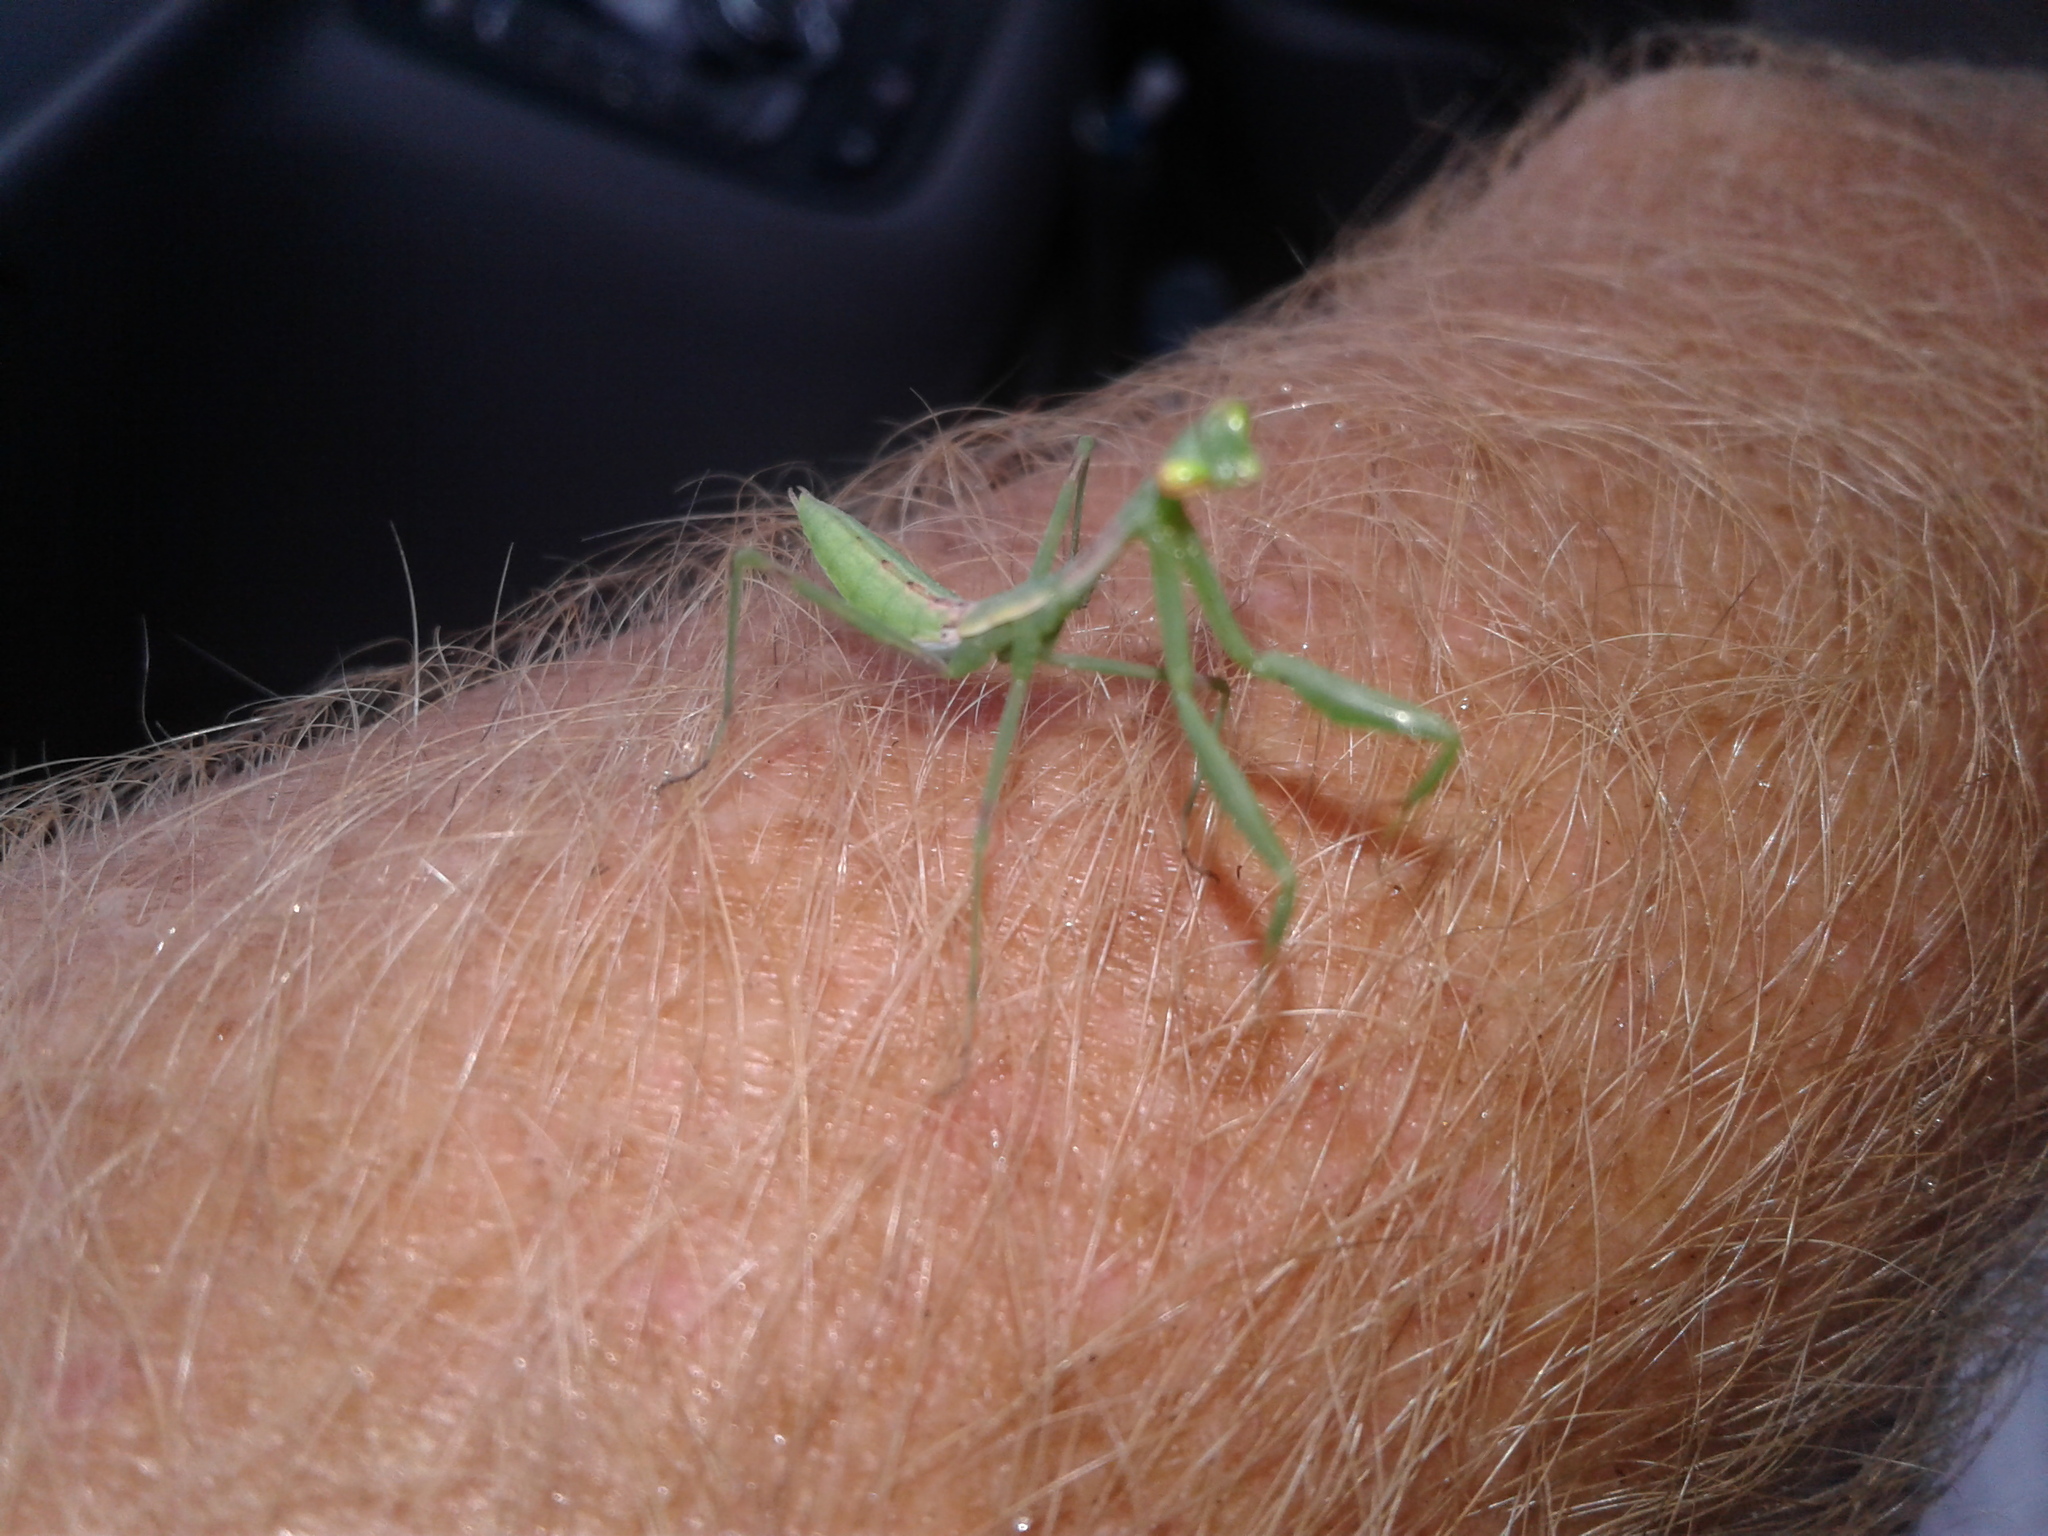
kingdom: Animalia
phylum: Arthropoda
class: Insecta
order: Mantodea
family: Miomantidae
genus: Miomantis
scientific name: Miomantis caffra
